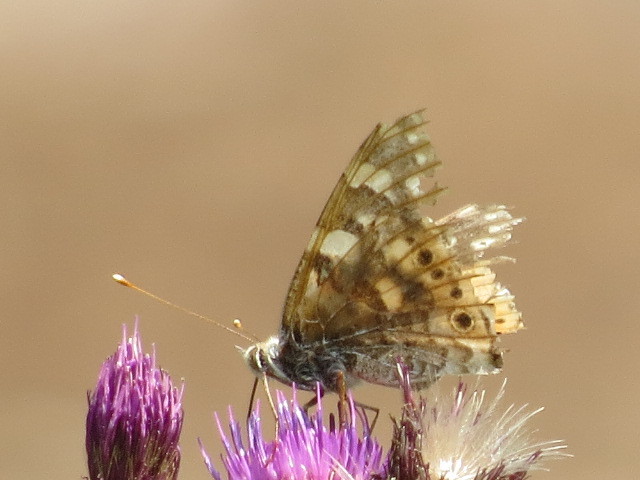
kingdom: Animalia
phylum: Arthropoda
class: Insecta
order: Lepidoptera
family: Nymphalidae
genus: Vanessa
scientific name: Vanessa cardui
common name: Painted lady
